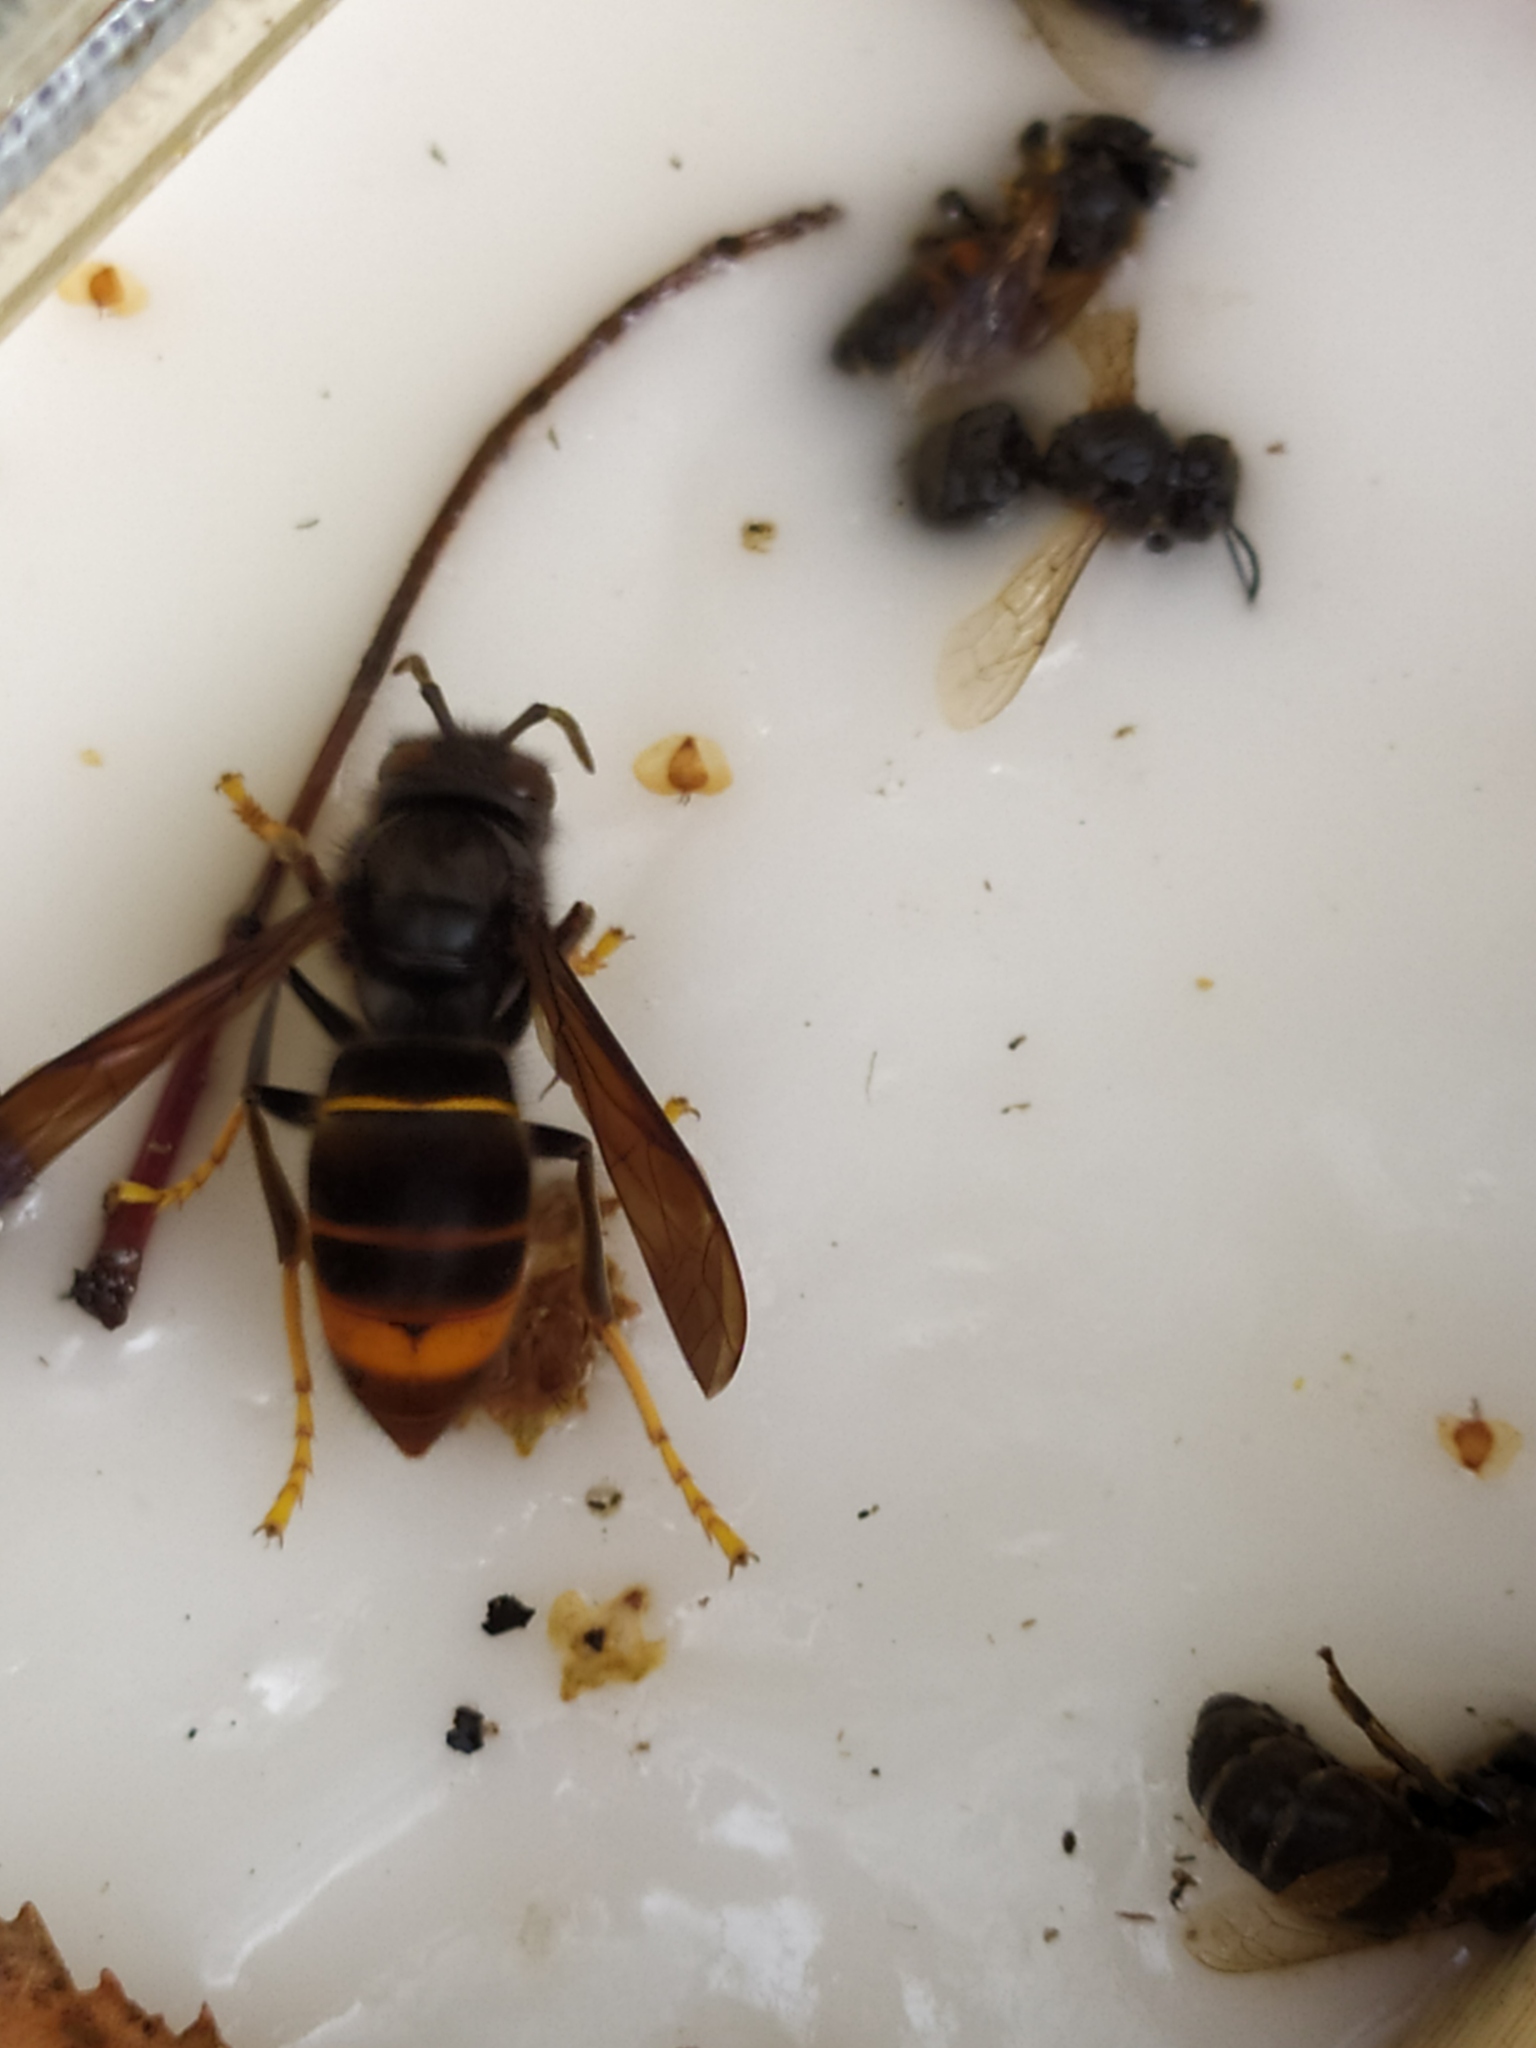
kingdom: Animalia
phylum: Arthropoda
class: Insecta
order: Hymenoptera
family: Vespidae
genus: Vespa
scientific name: Vespa velutina
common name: Asian hornet
